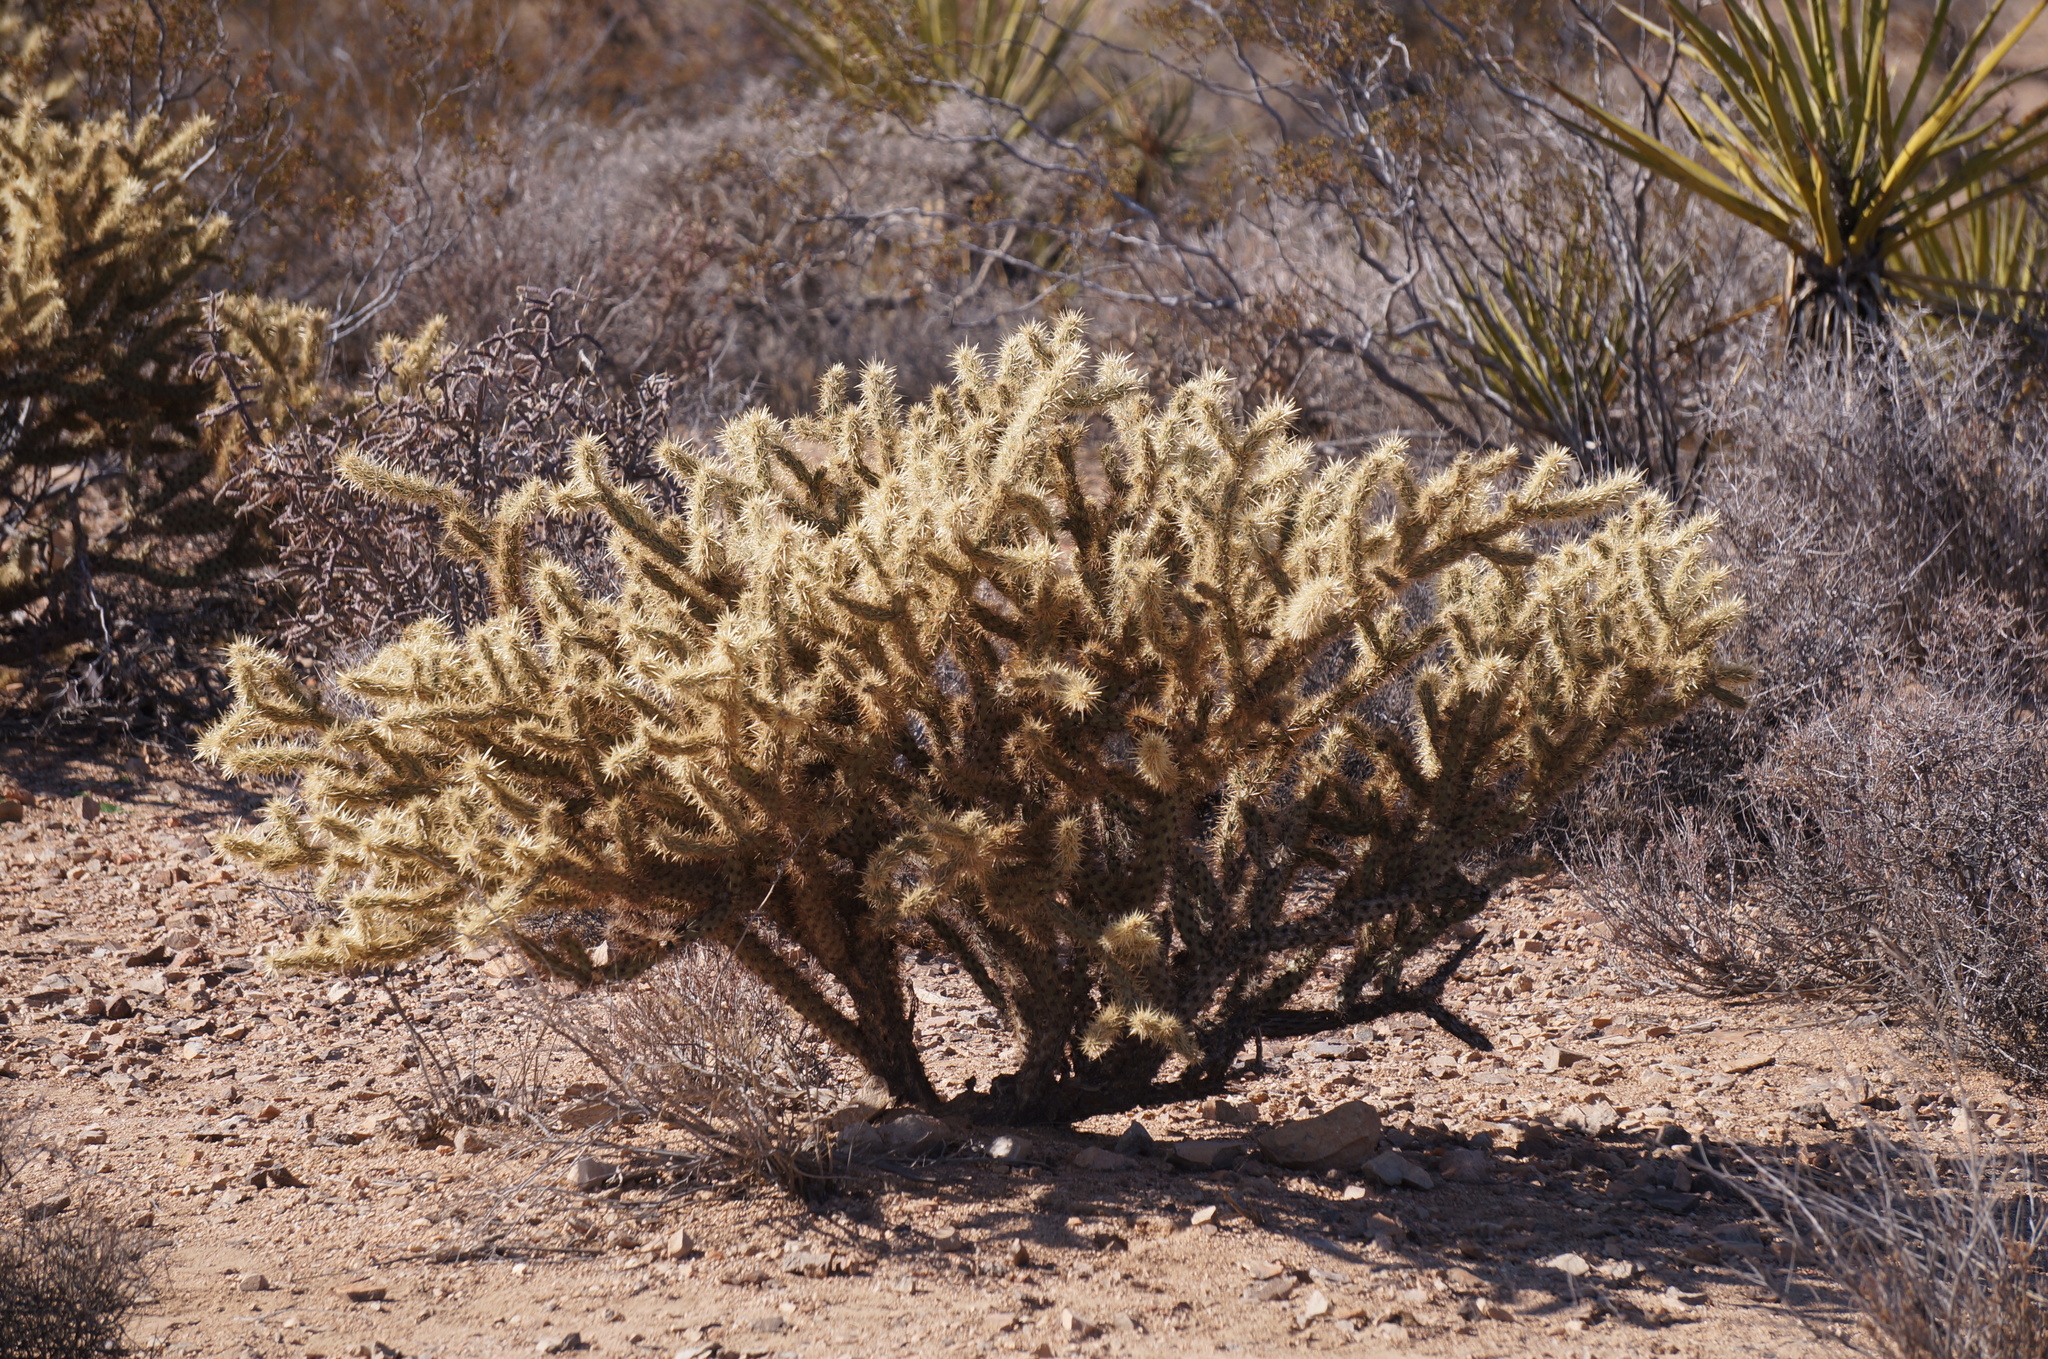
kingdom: Plantae
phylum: Tracheophyta
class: Magnoliopsida
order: Caryophyllales
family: Cactaceae
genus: Cylindropuntia
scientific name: Cylindropuntia echinocarpa
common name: Ground cholla
